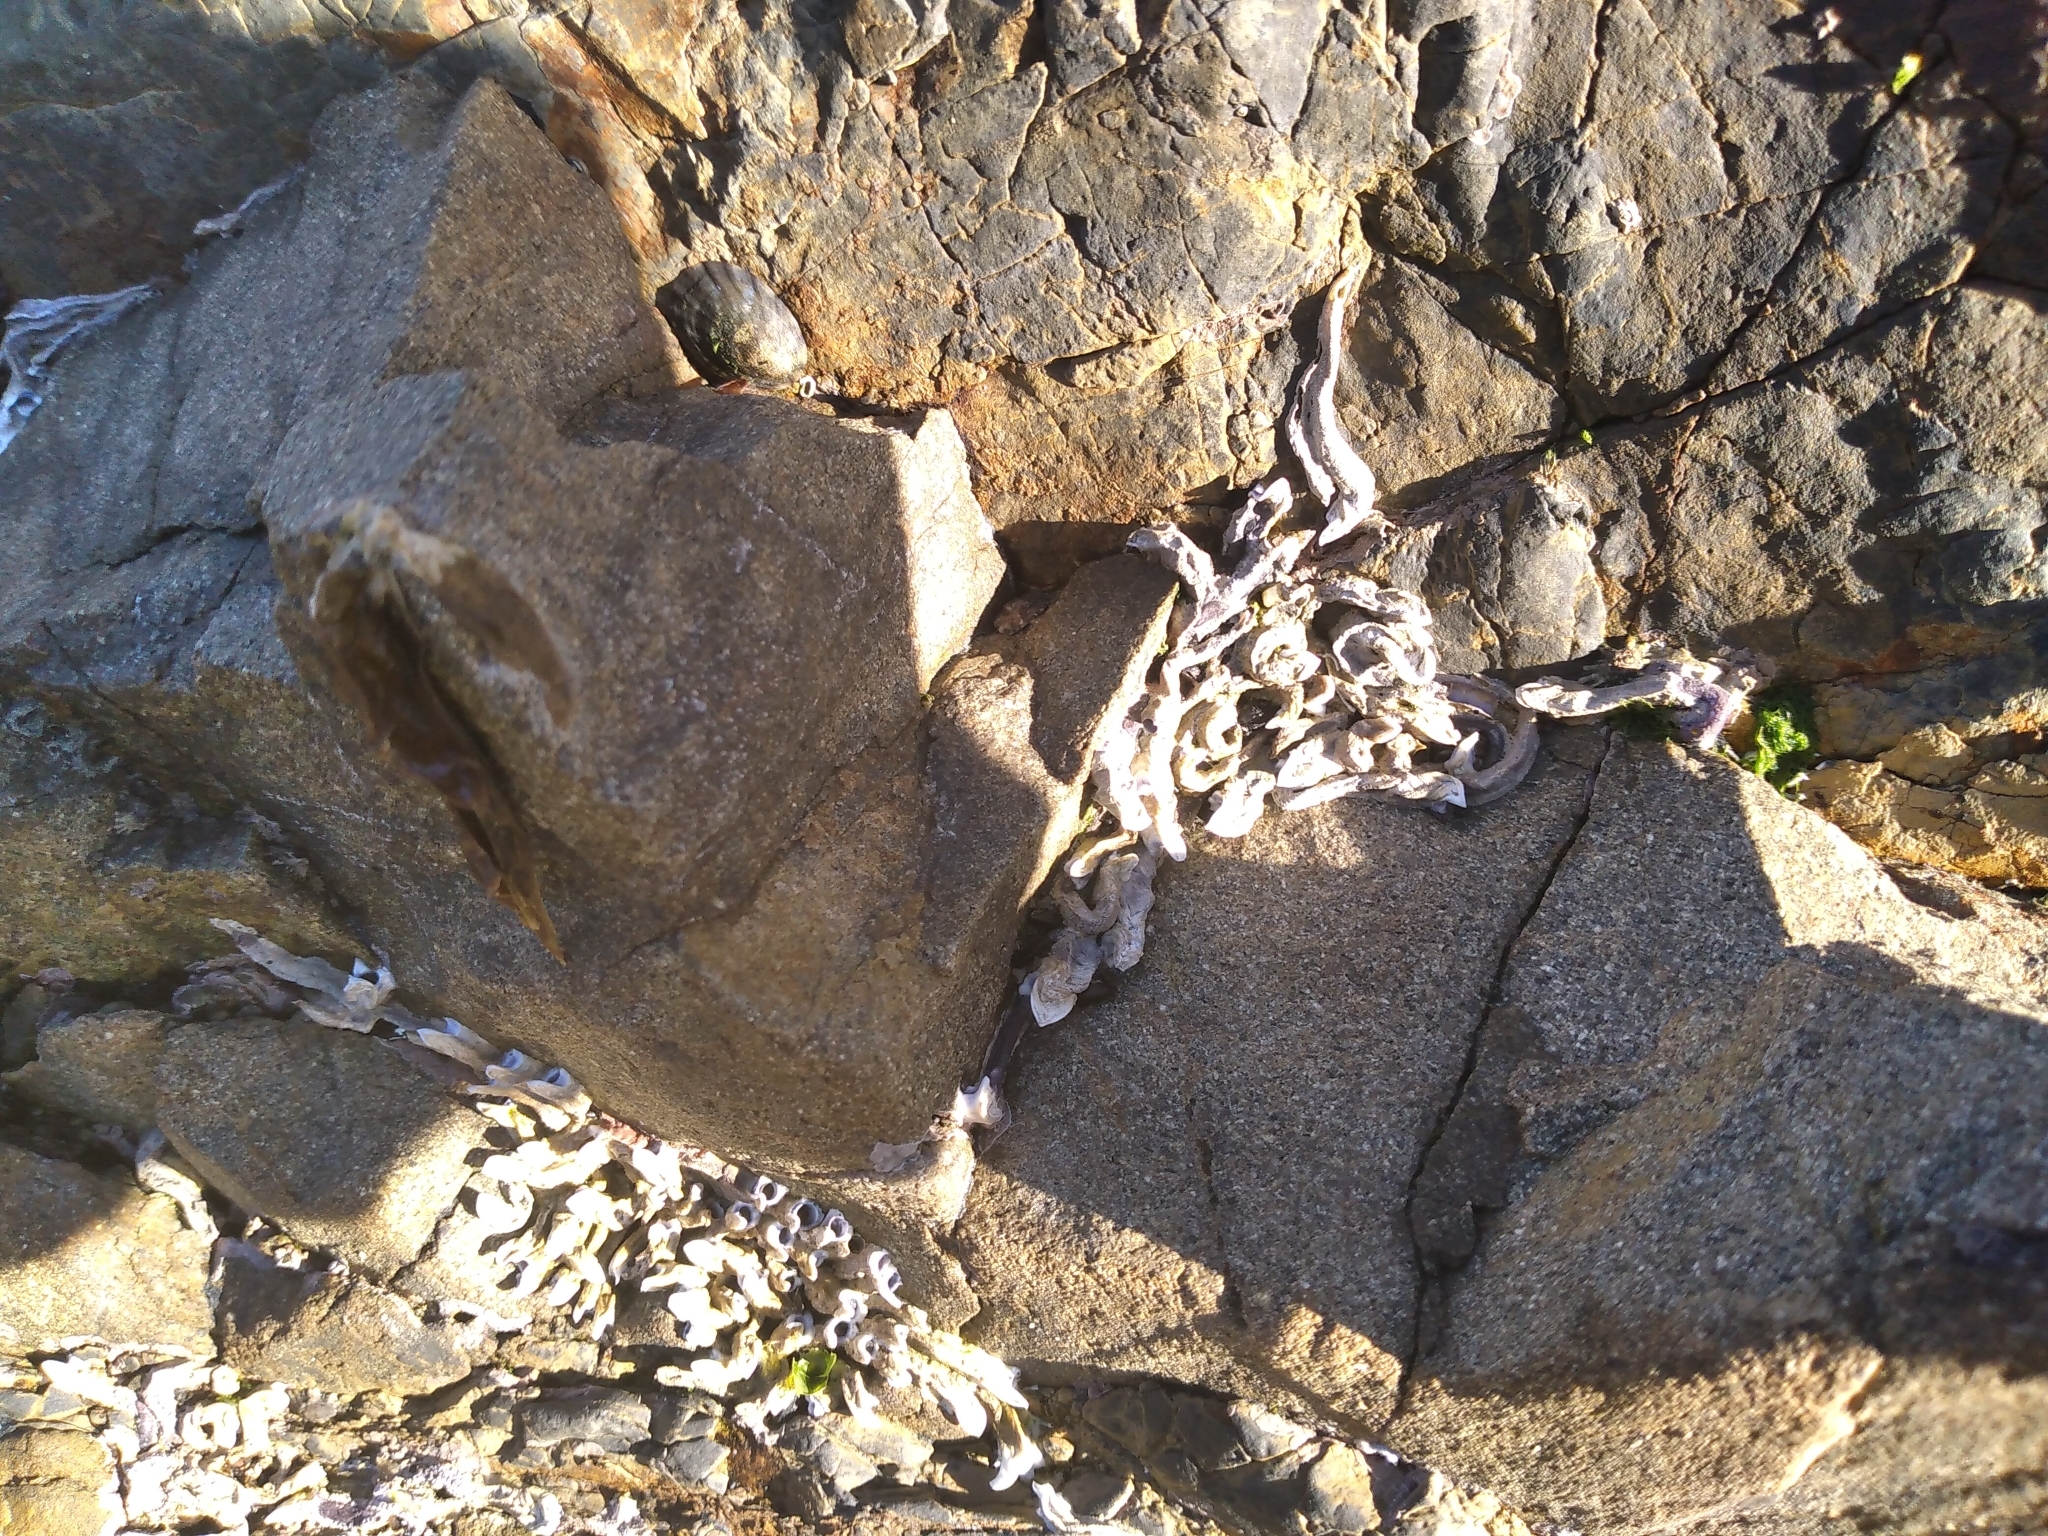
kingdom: Animalia
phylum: Annelida
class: Polychaeta
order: Sabellida
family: Serpulidae
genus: Spirobranchus
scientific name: Spirobranchus cariniferus
